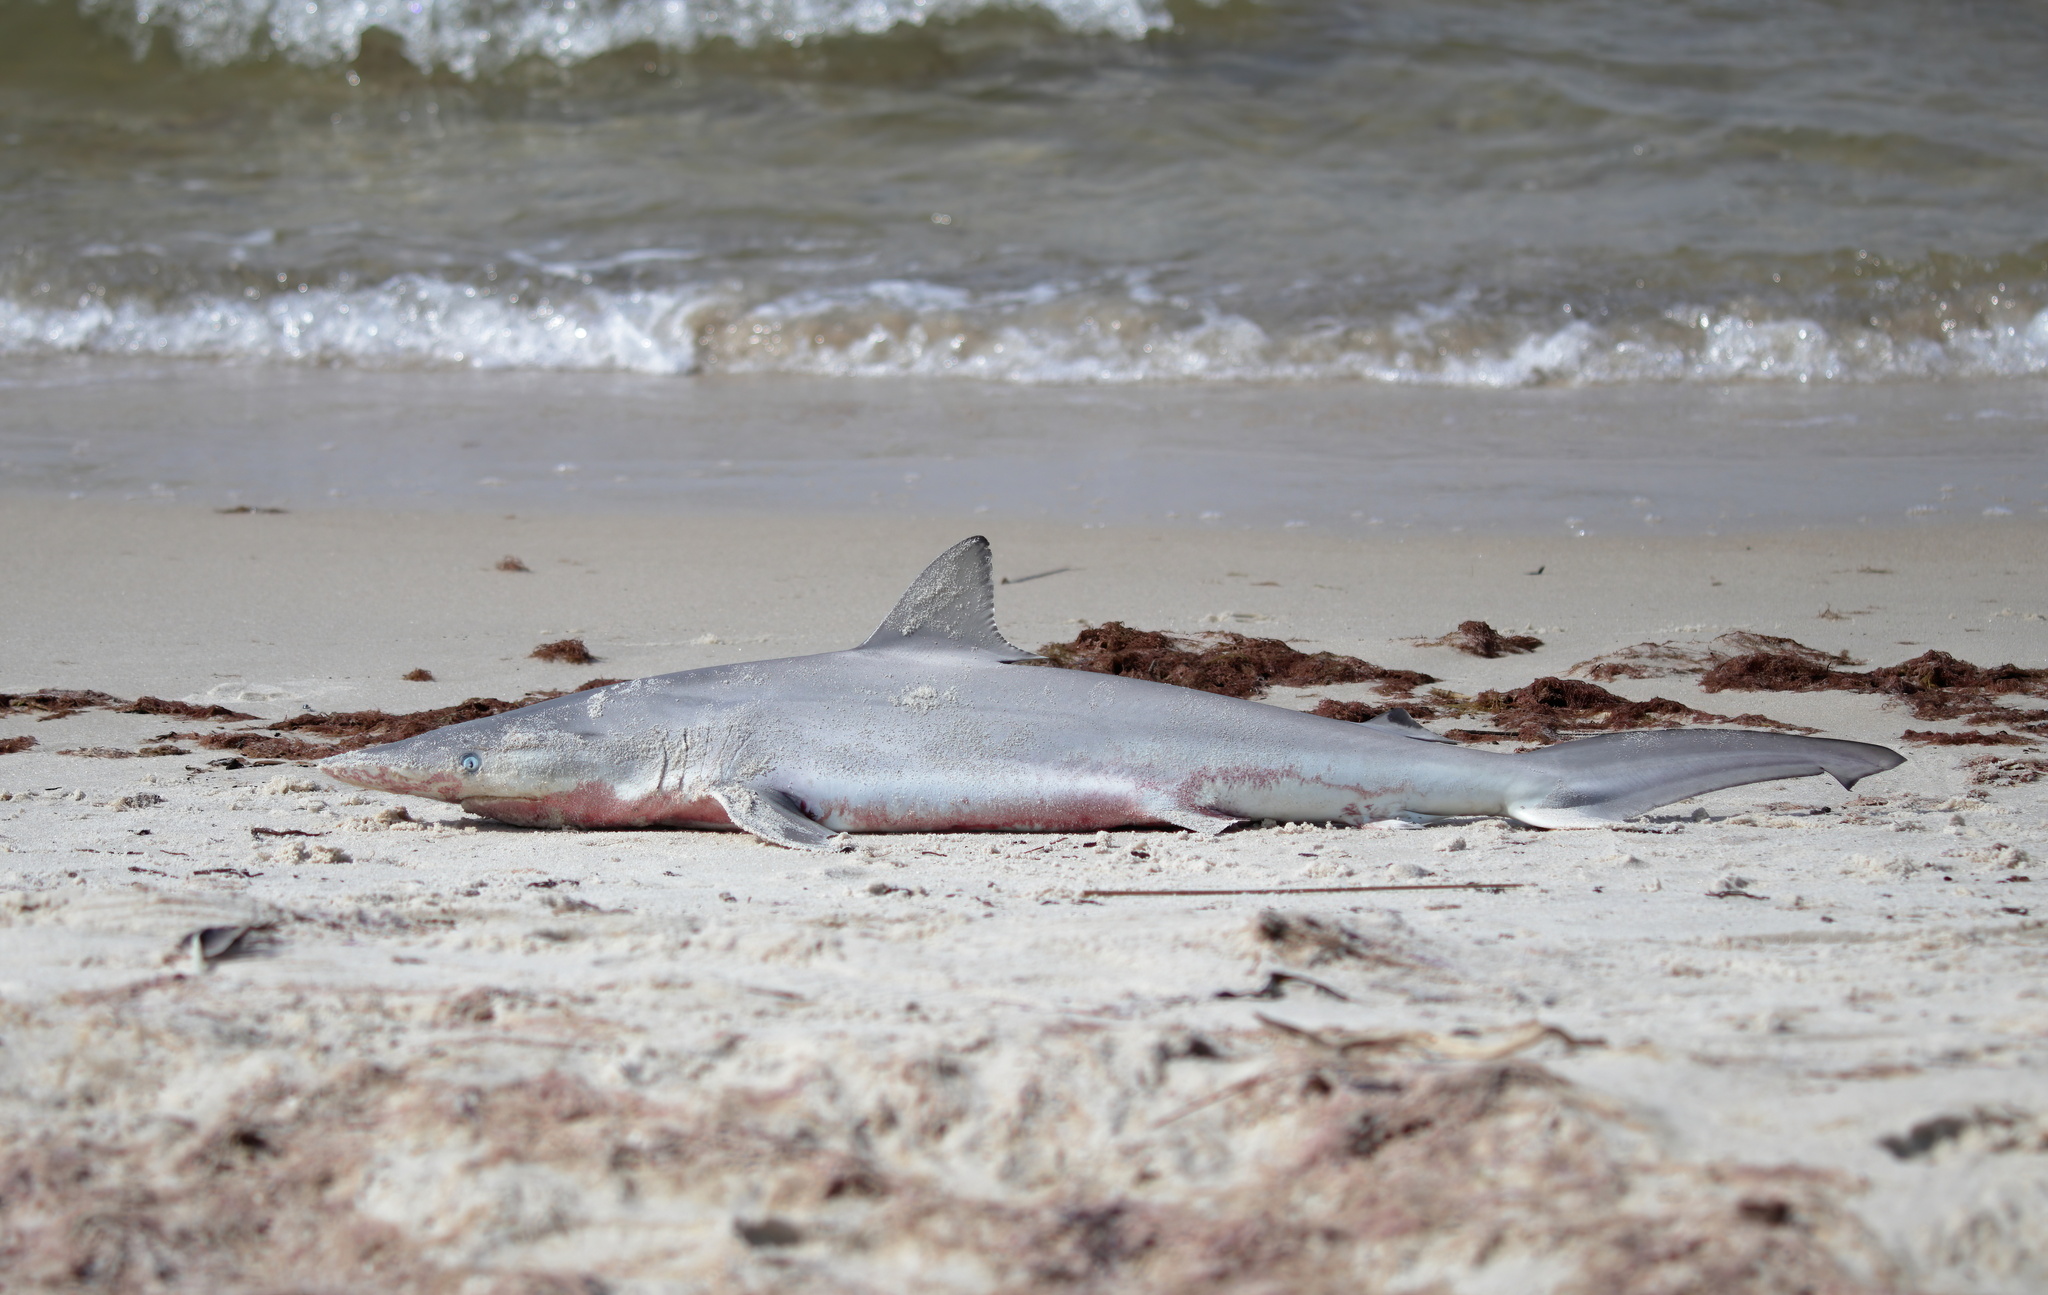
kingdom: Animalia
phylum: Chordata
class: Elasmobranchii
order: Carcharhiniformes
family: Carcharhinidae
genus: Carcharhinus
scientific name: Carcharhinus brevipinna
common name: Spinner shark
